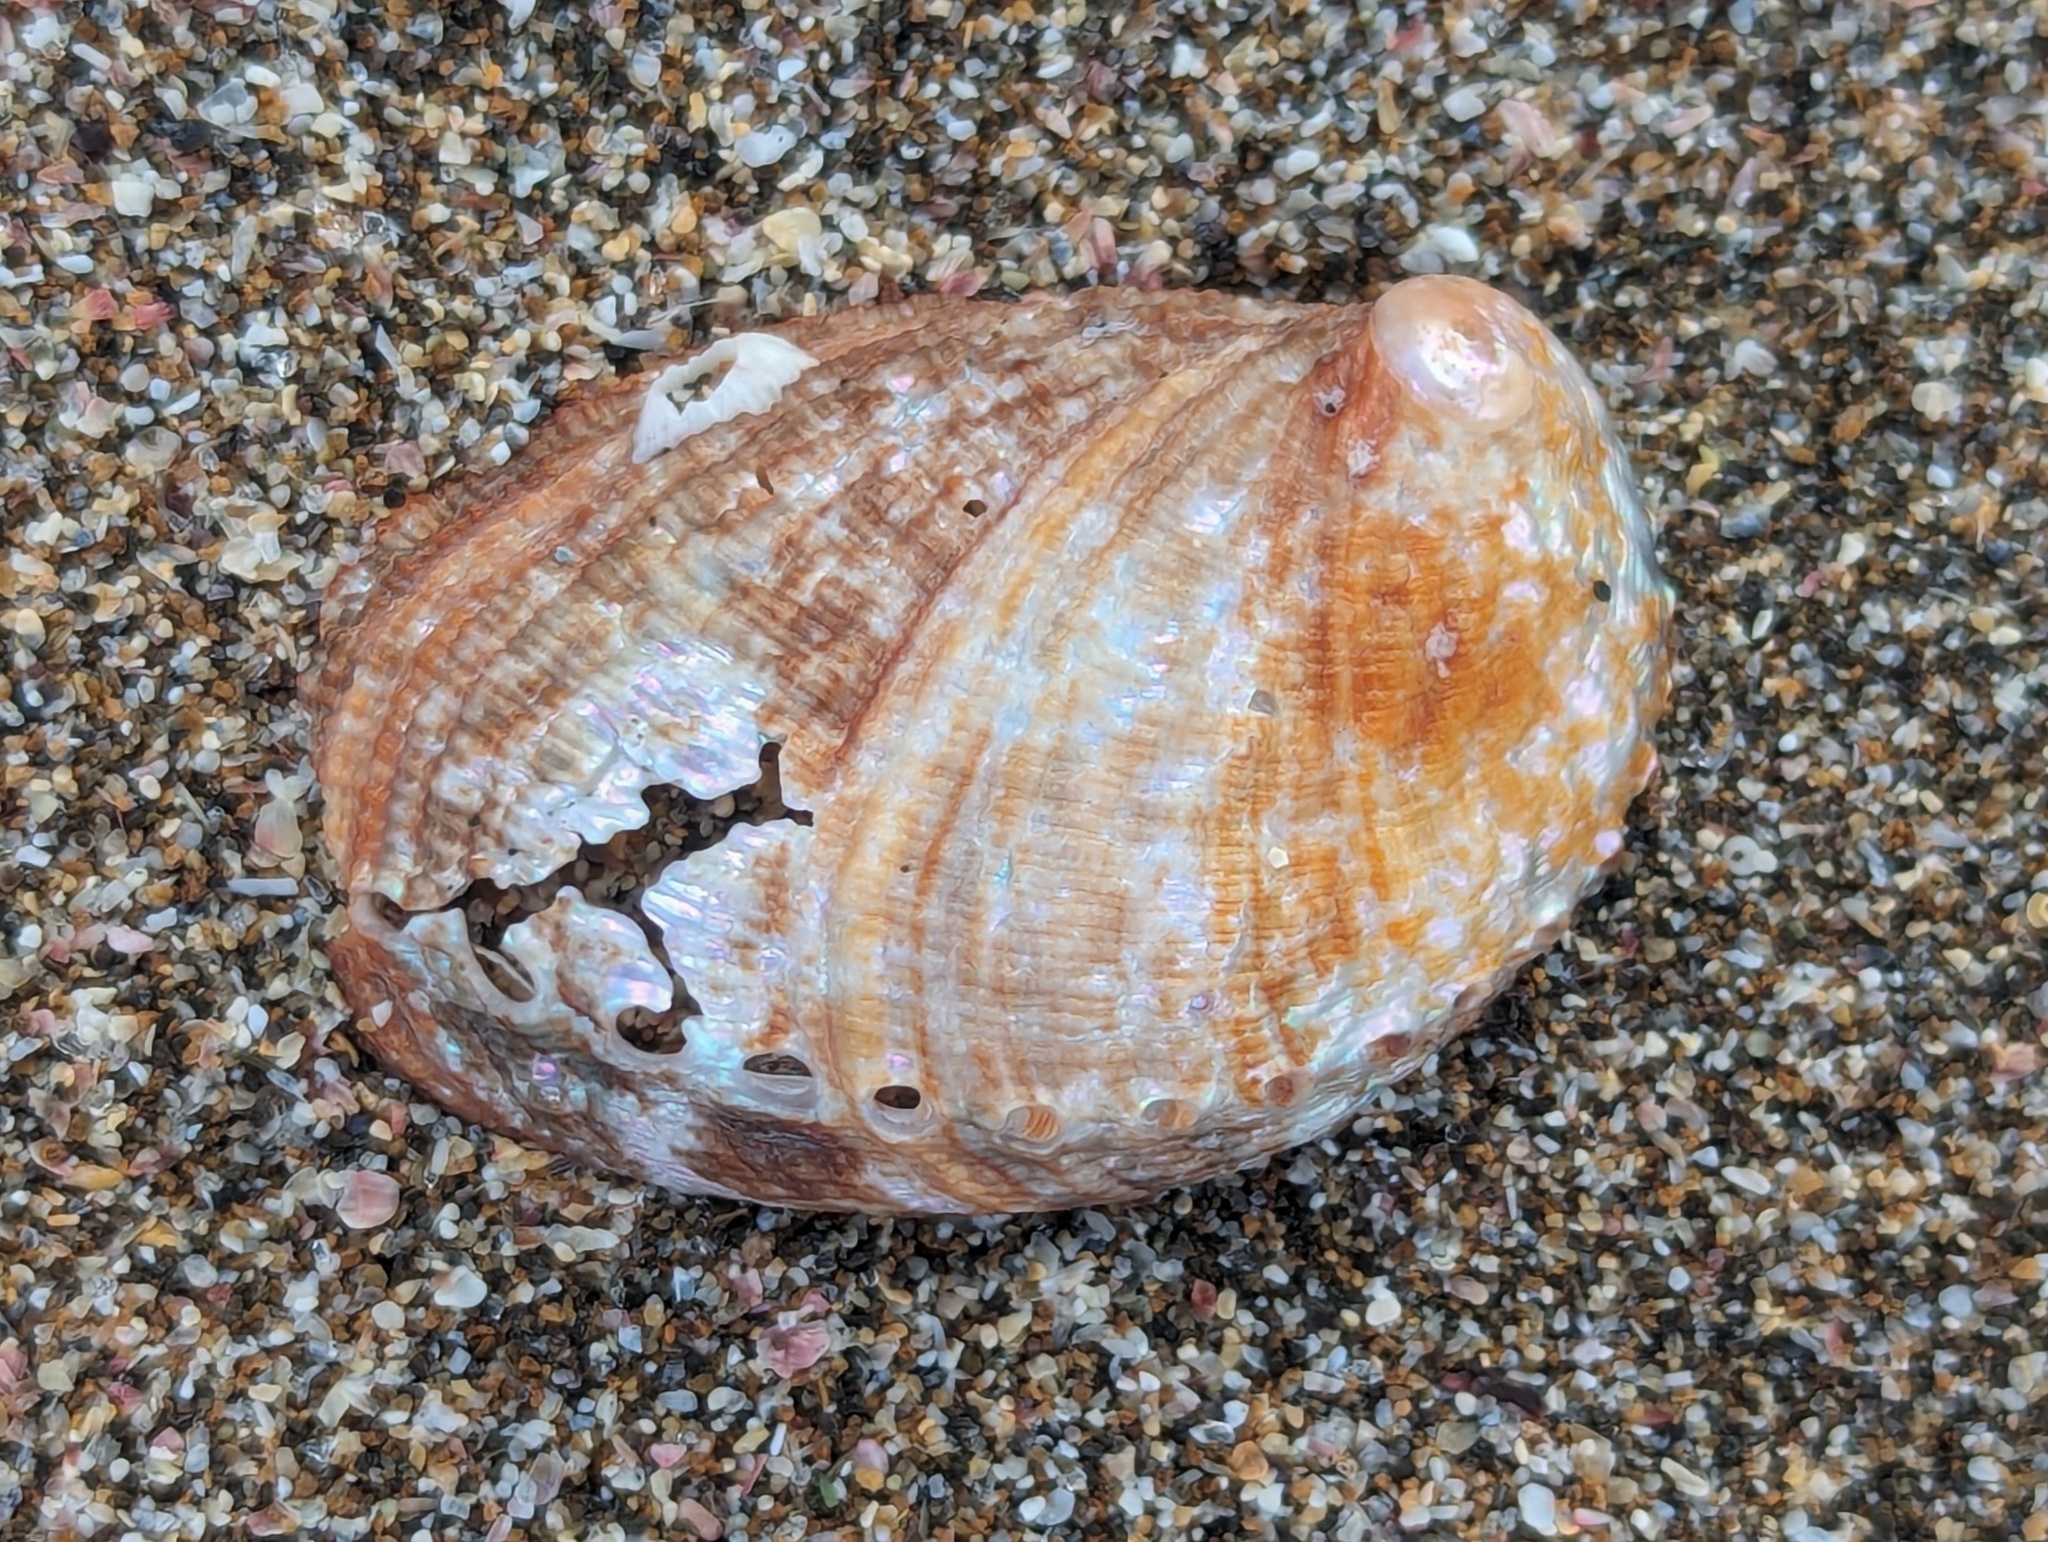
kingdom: Animalia
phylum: Mollusca
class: Gastropoda
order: Lepetellida
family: Haliotidae
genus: Haliotis
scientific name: Haliotis virginea
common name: Whitefoot paua
